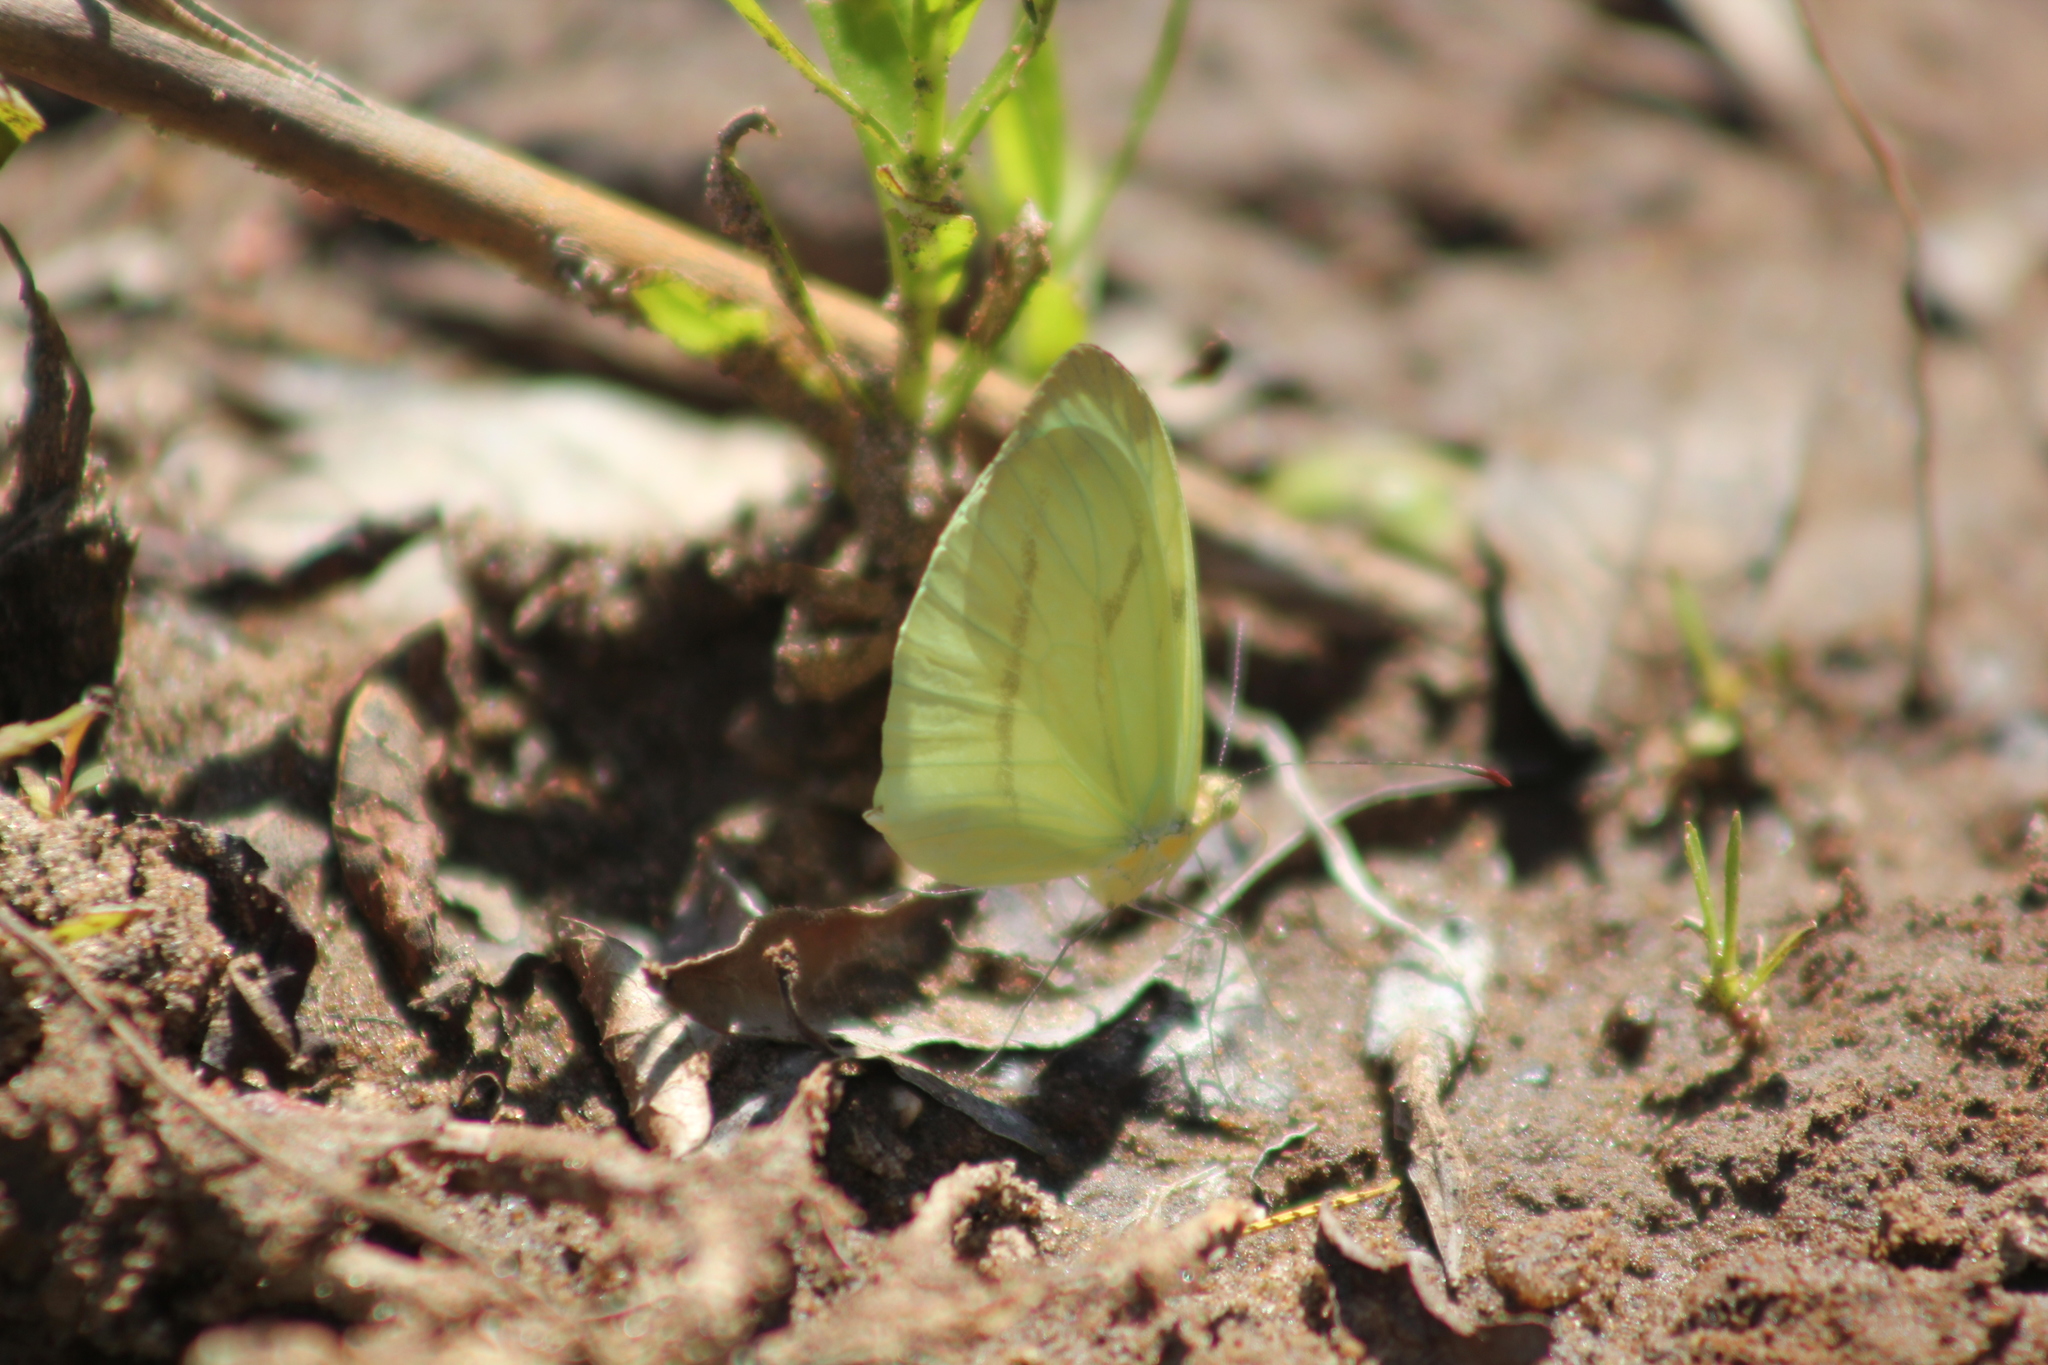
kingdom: Animalia
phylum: Arthropoda
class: Insecta
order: Lepidoptera
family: Pieridae
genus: Enantia
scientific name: Enantia lina
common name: White mimic-white
